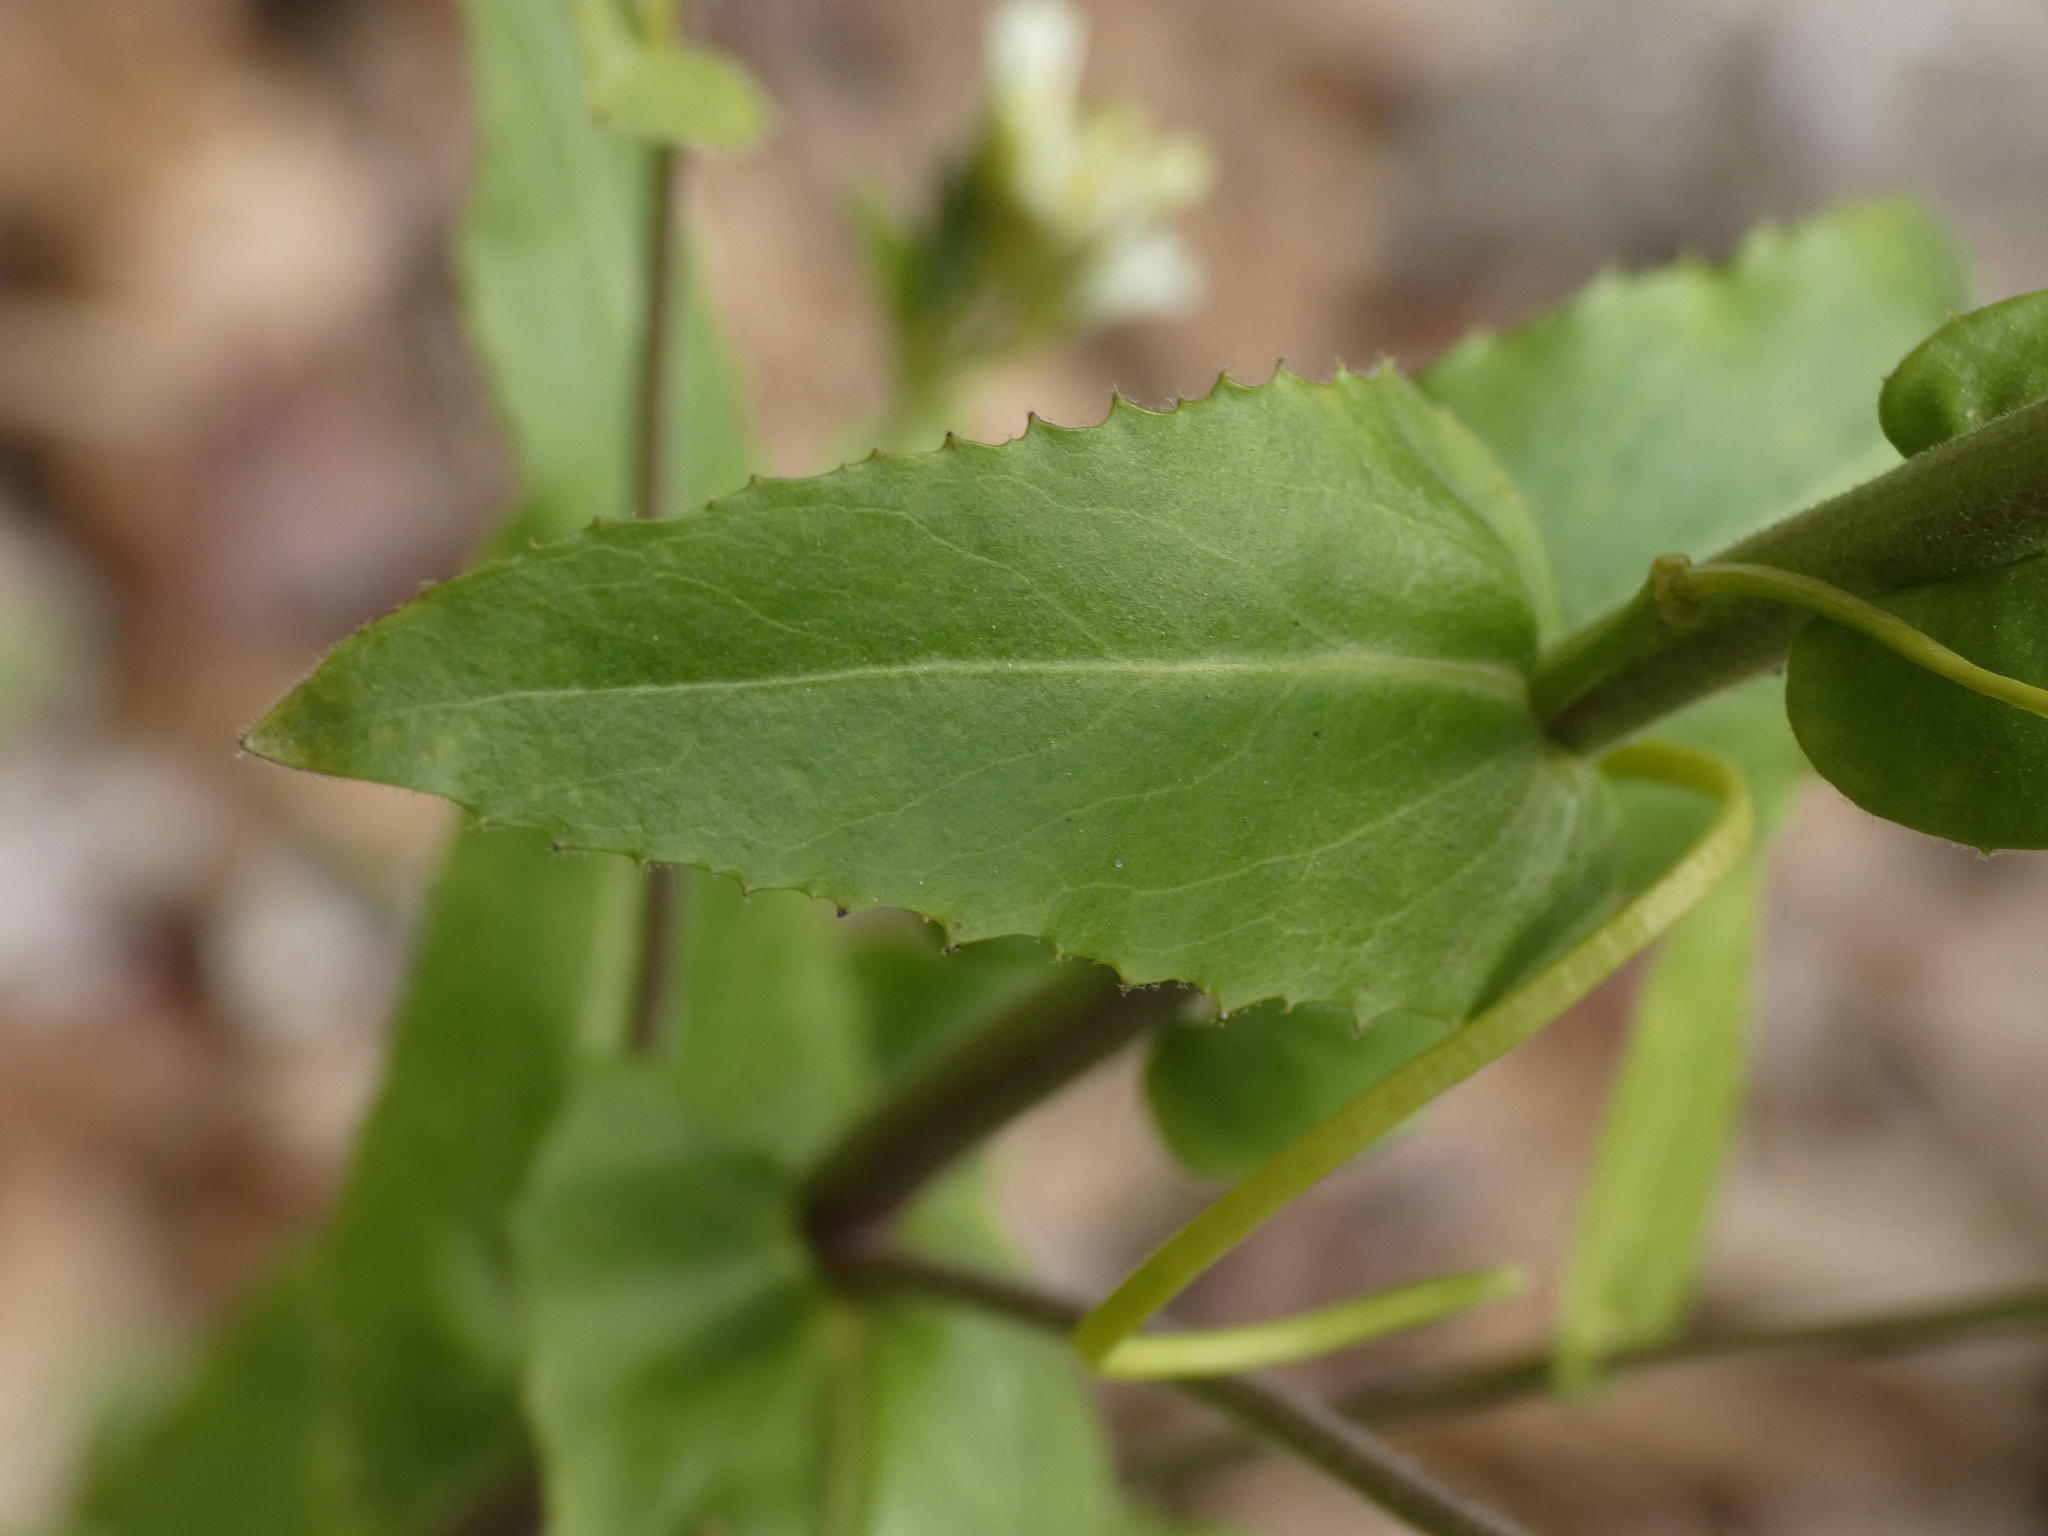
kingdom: Plantae
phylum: Tracheophyta
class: Magnoliopsida
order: Brassicales
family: Brassicaceae
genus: Turritis
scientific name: Turritis glabra
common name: Tower rockcress
